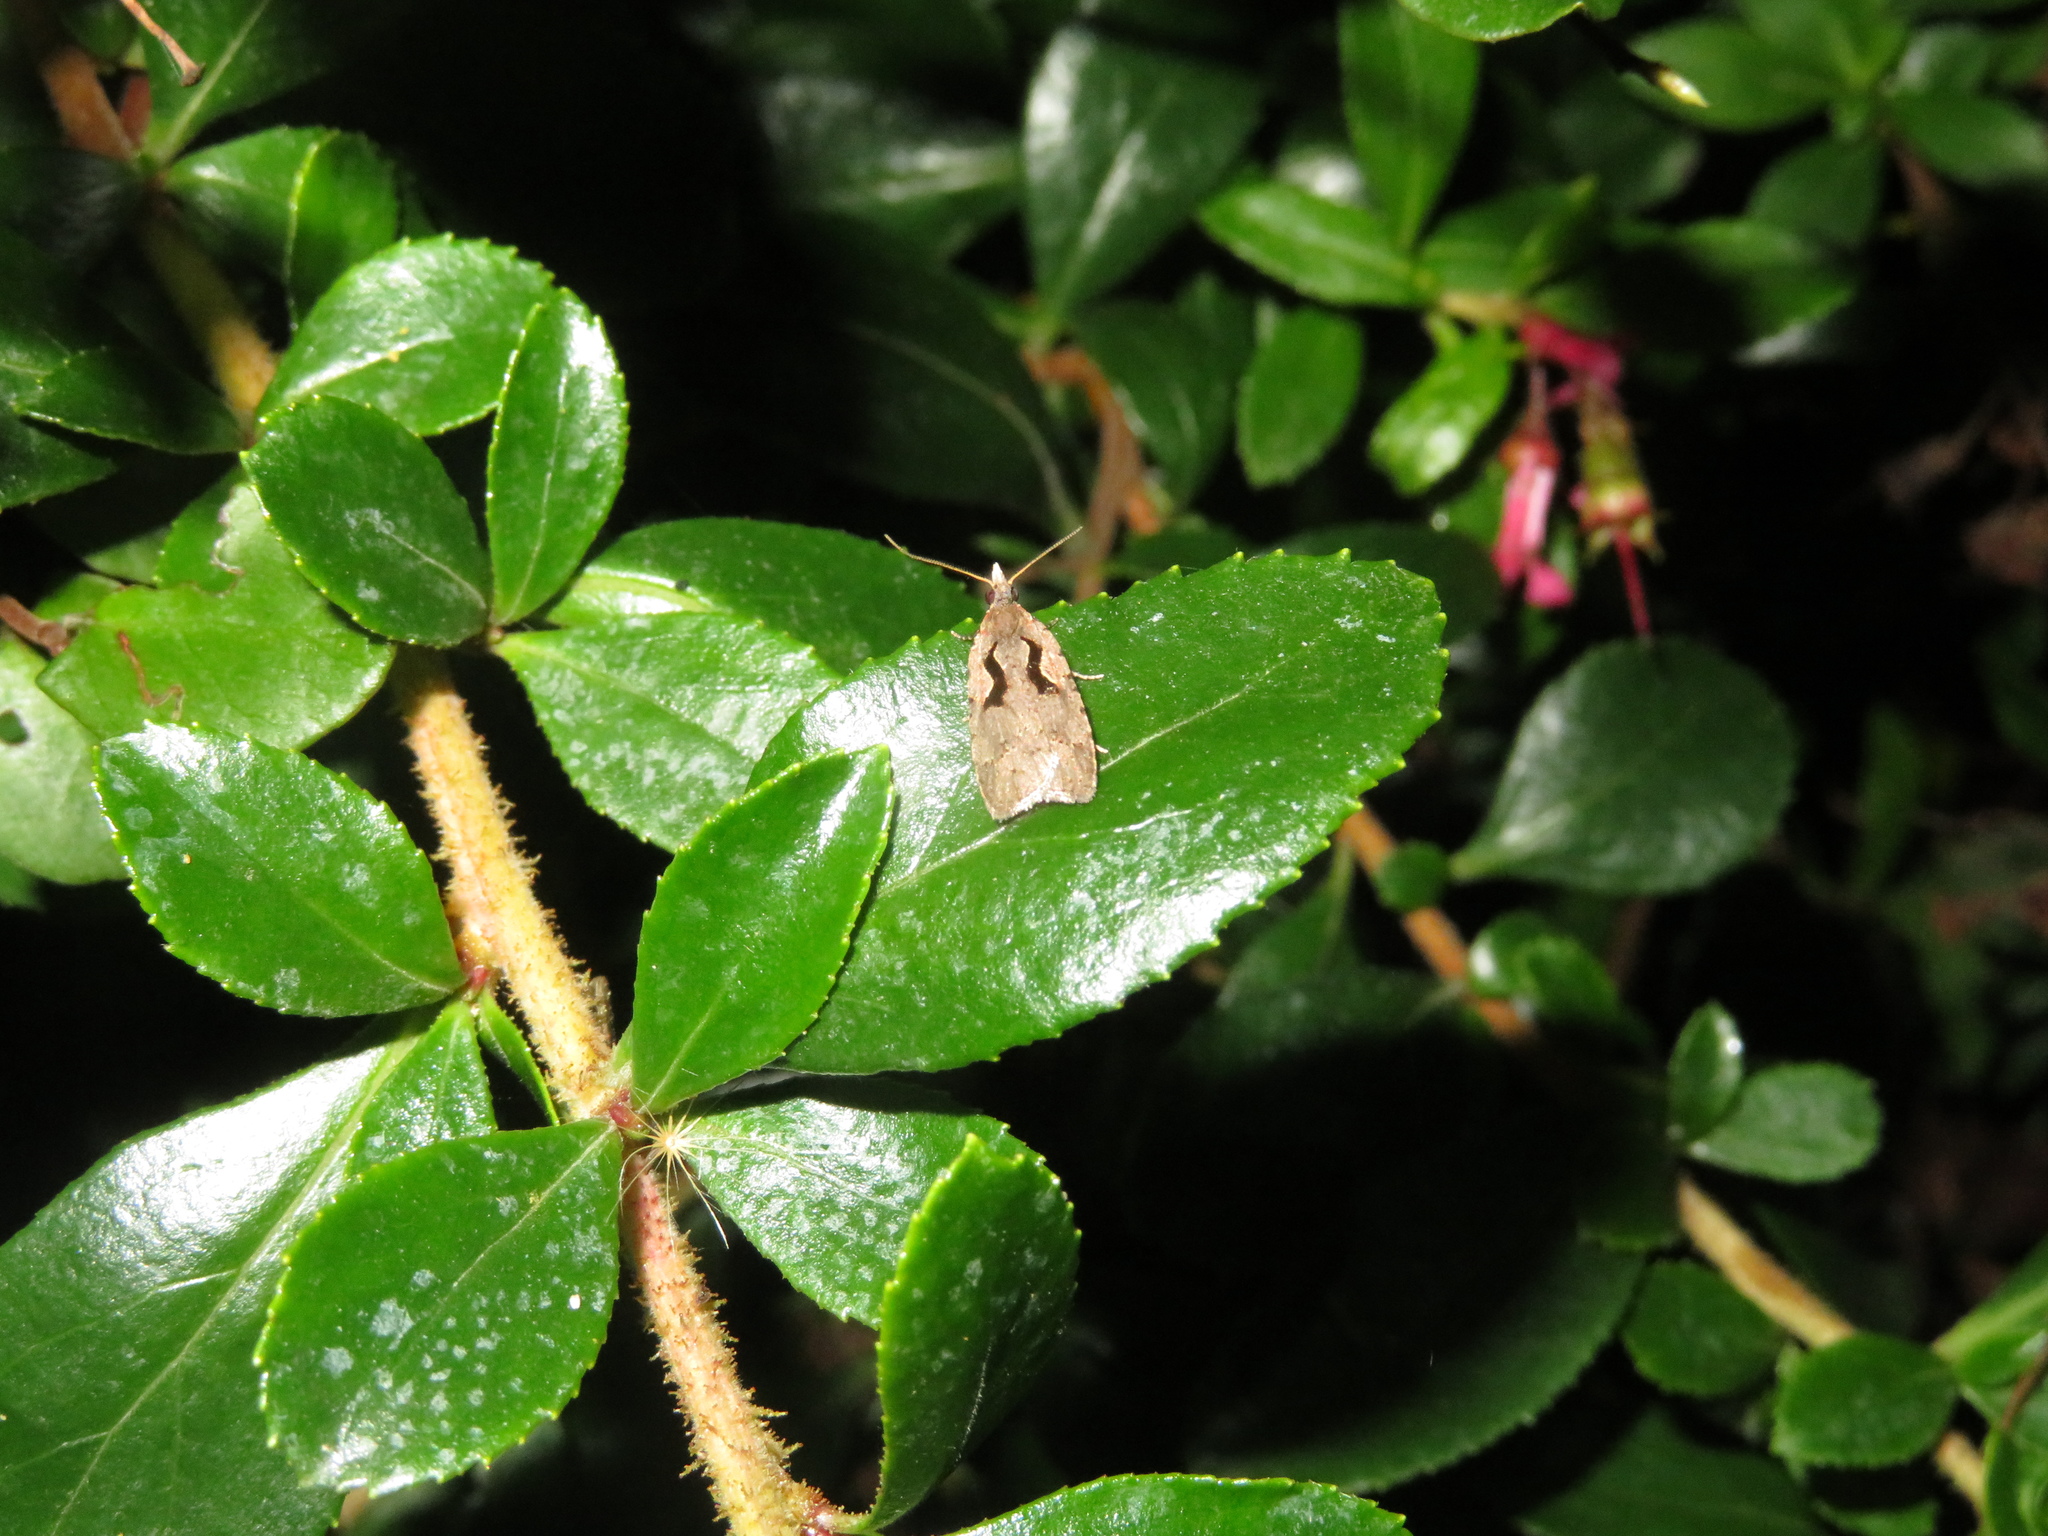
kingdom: Animalia
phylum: Arthropoda
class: Insecta
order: Lepidoptera
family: Tortricidae
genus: Cnephasia
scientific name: Cnephasia jactatana
